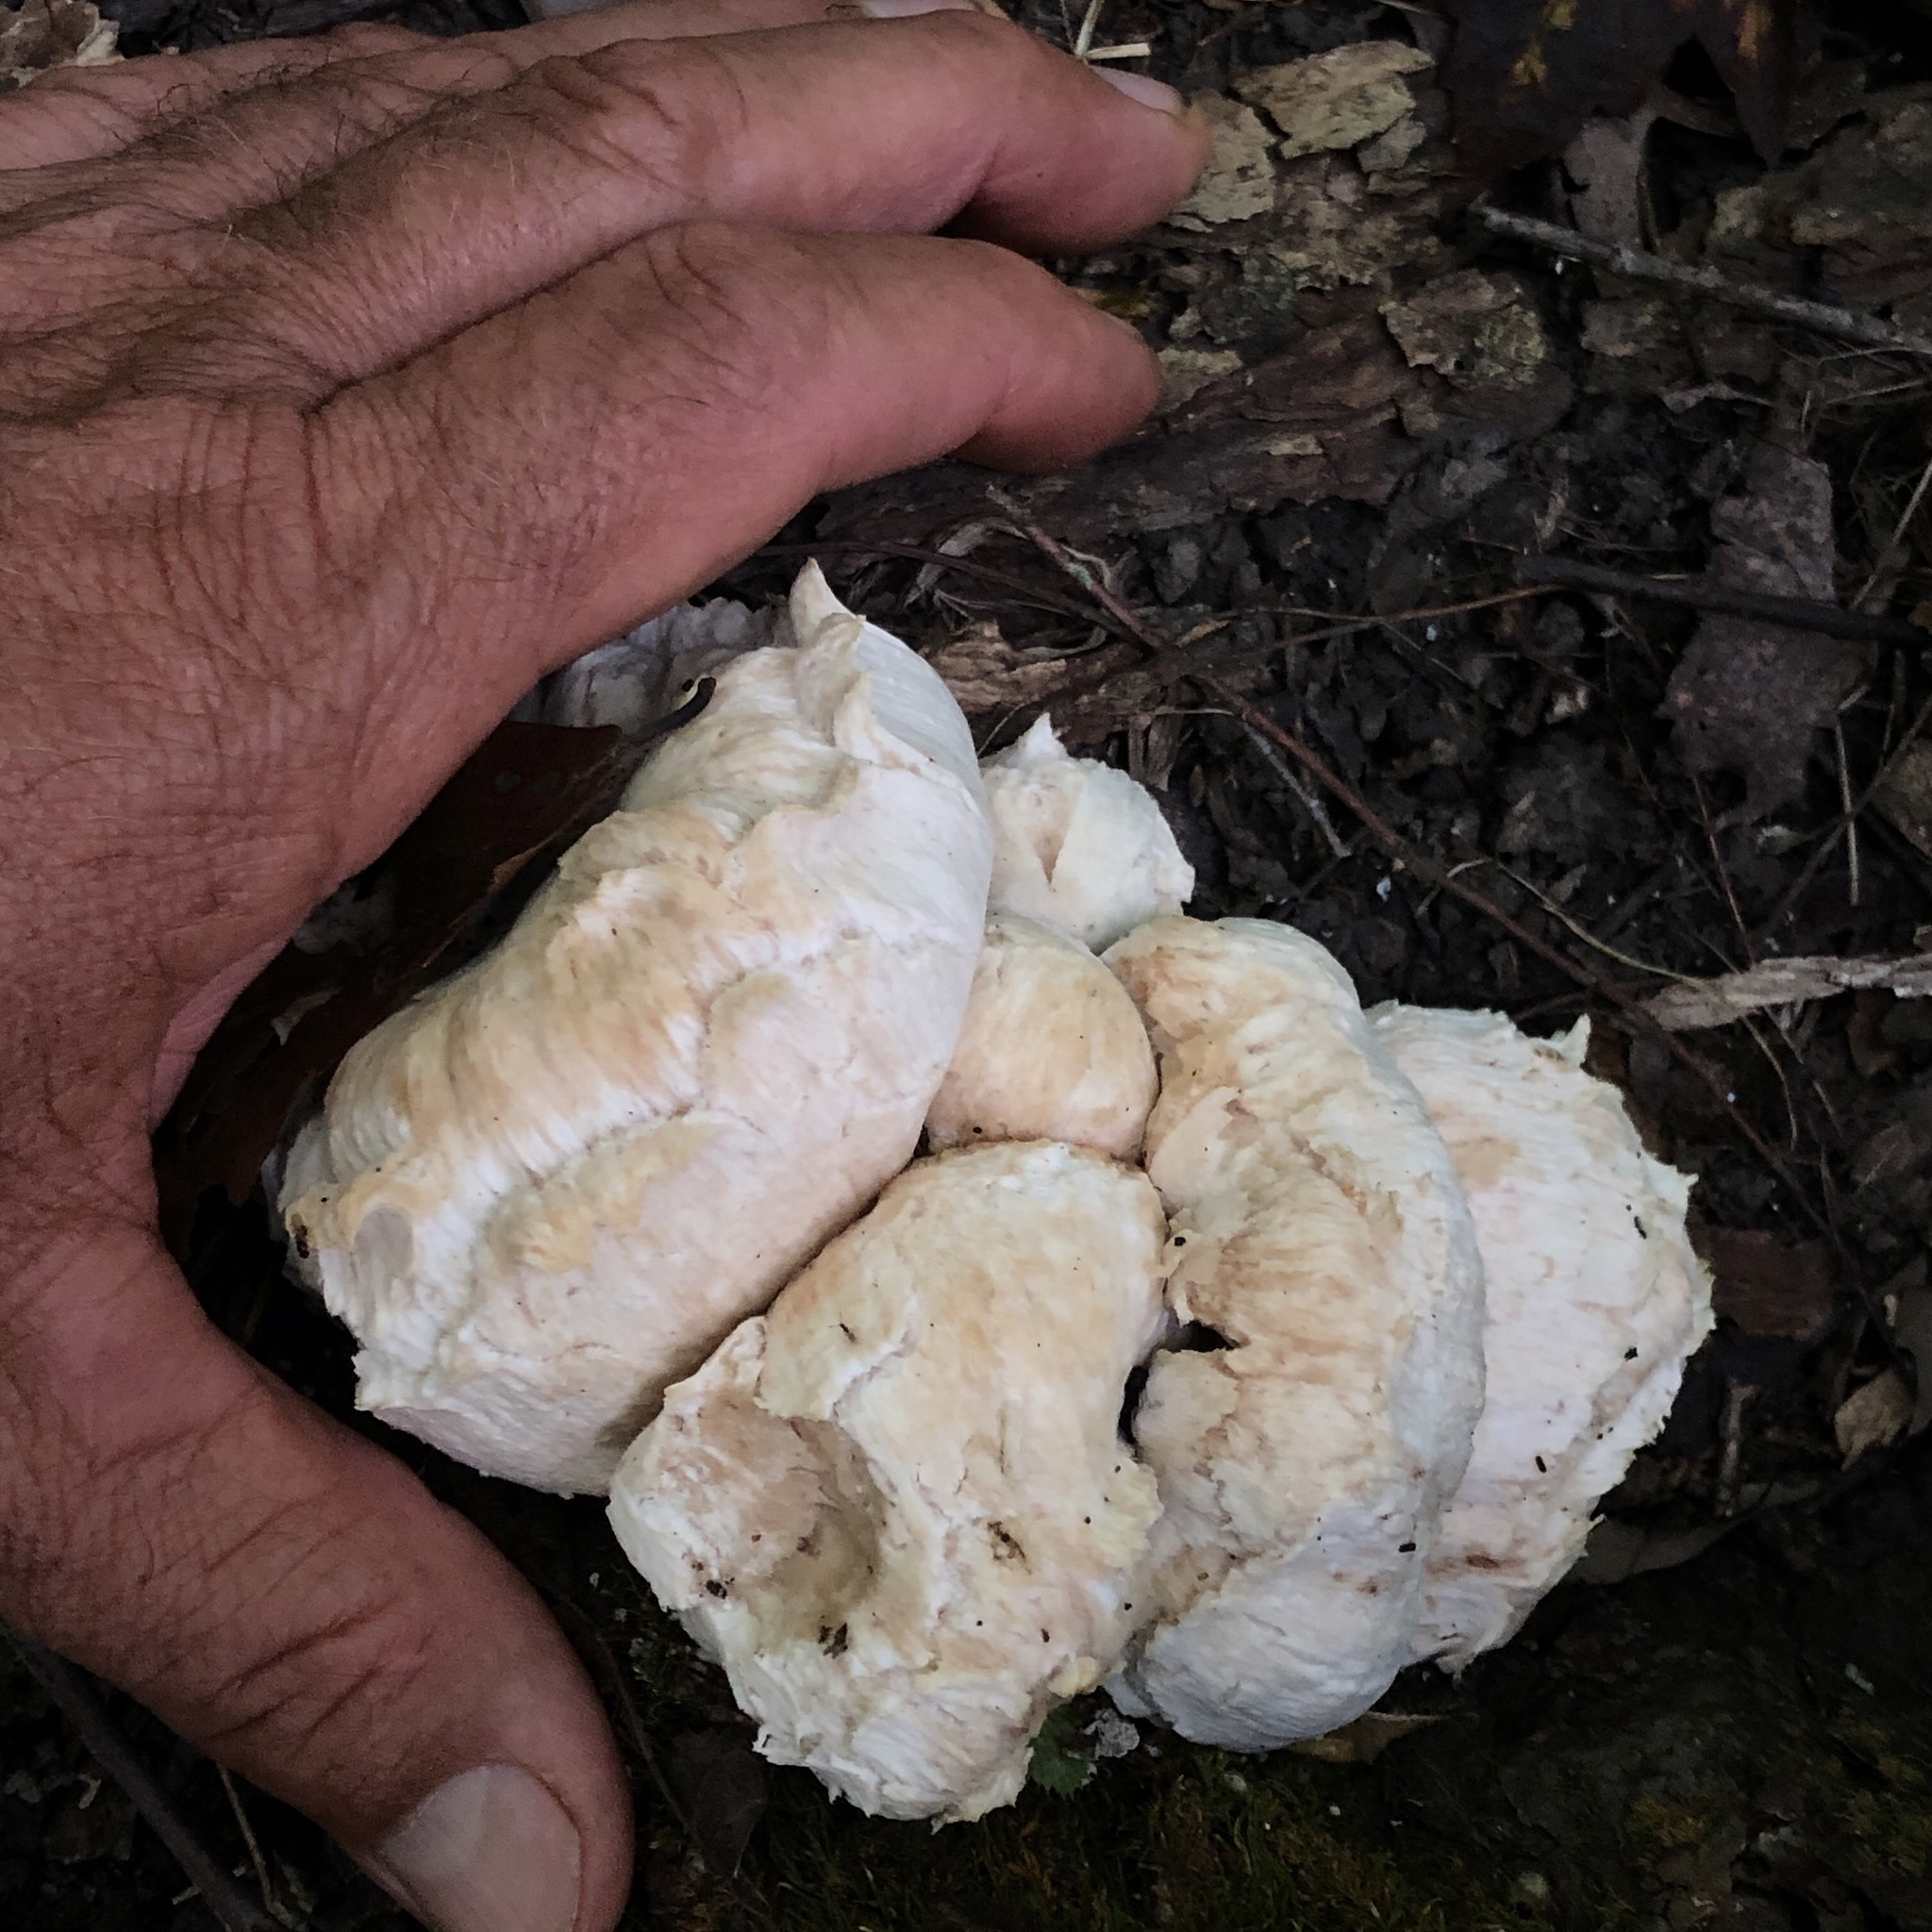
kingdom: Fungi
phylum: Basidiomycota
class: Agaricomycetes
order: Agaricales
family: Entolomataceae
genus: Entoloma
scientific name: Entoloma abortivum
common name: Aborted entoloma
